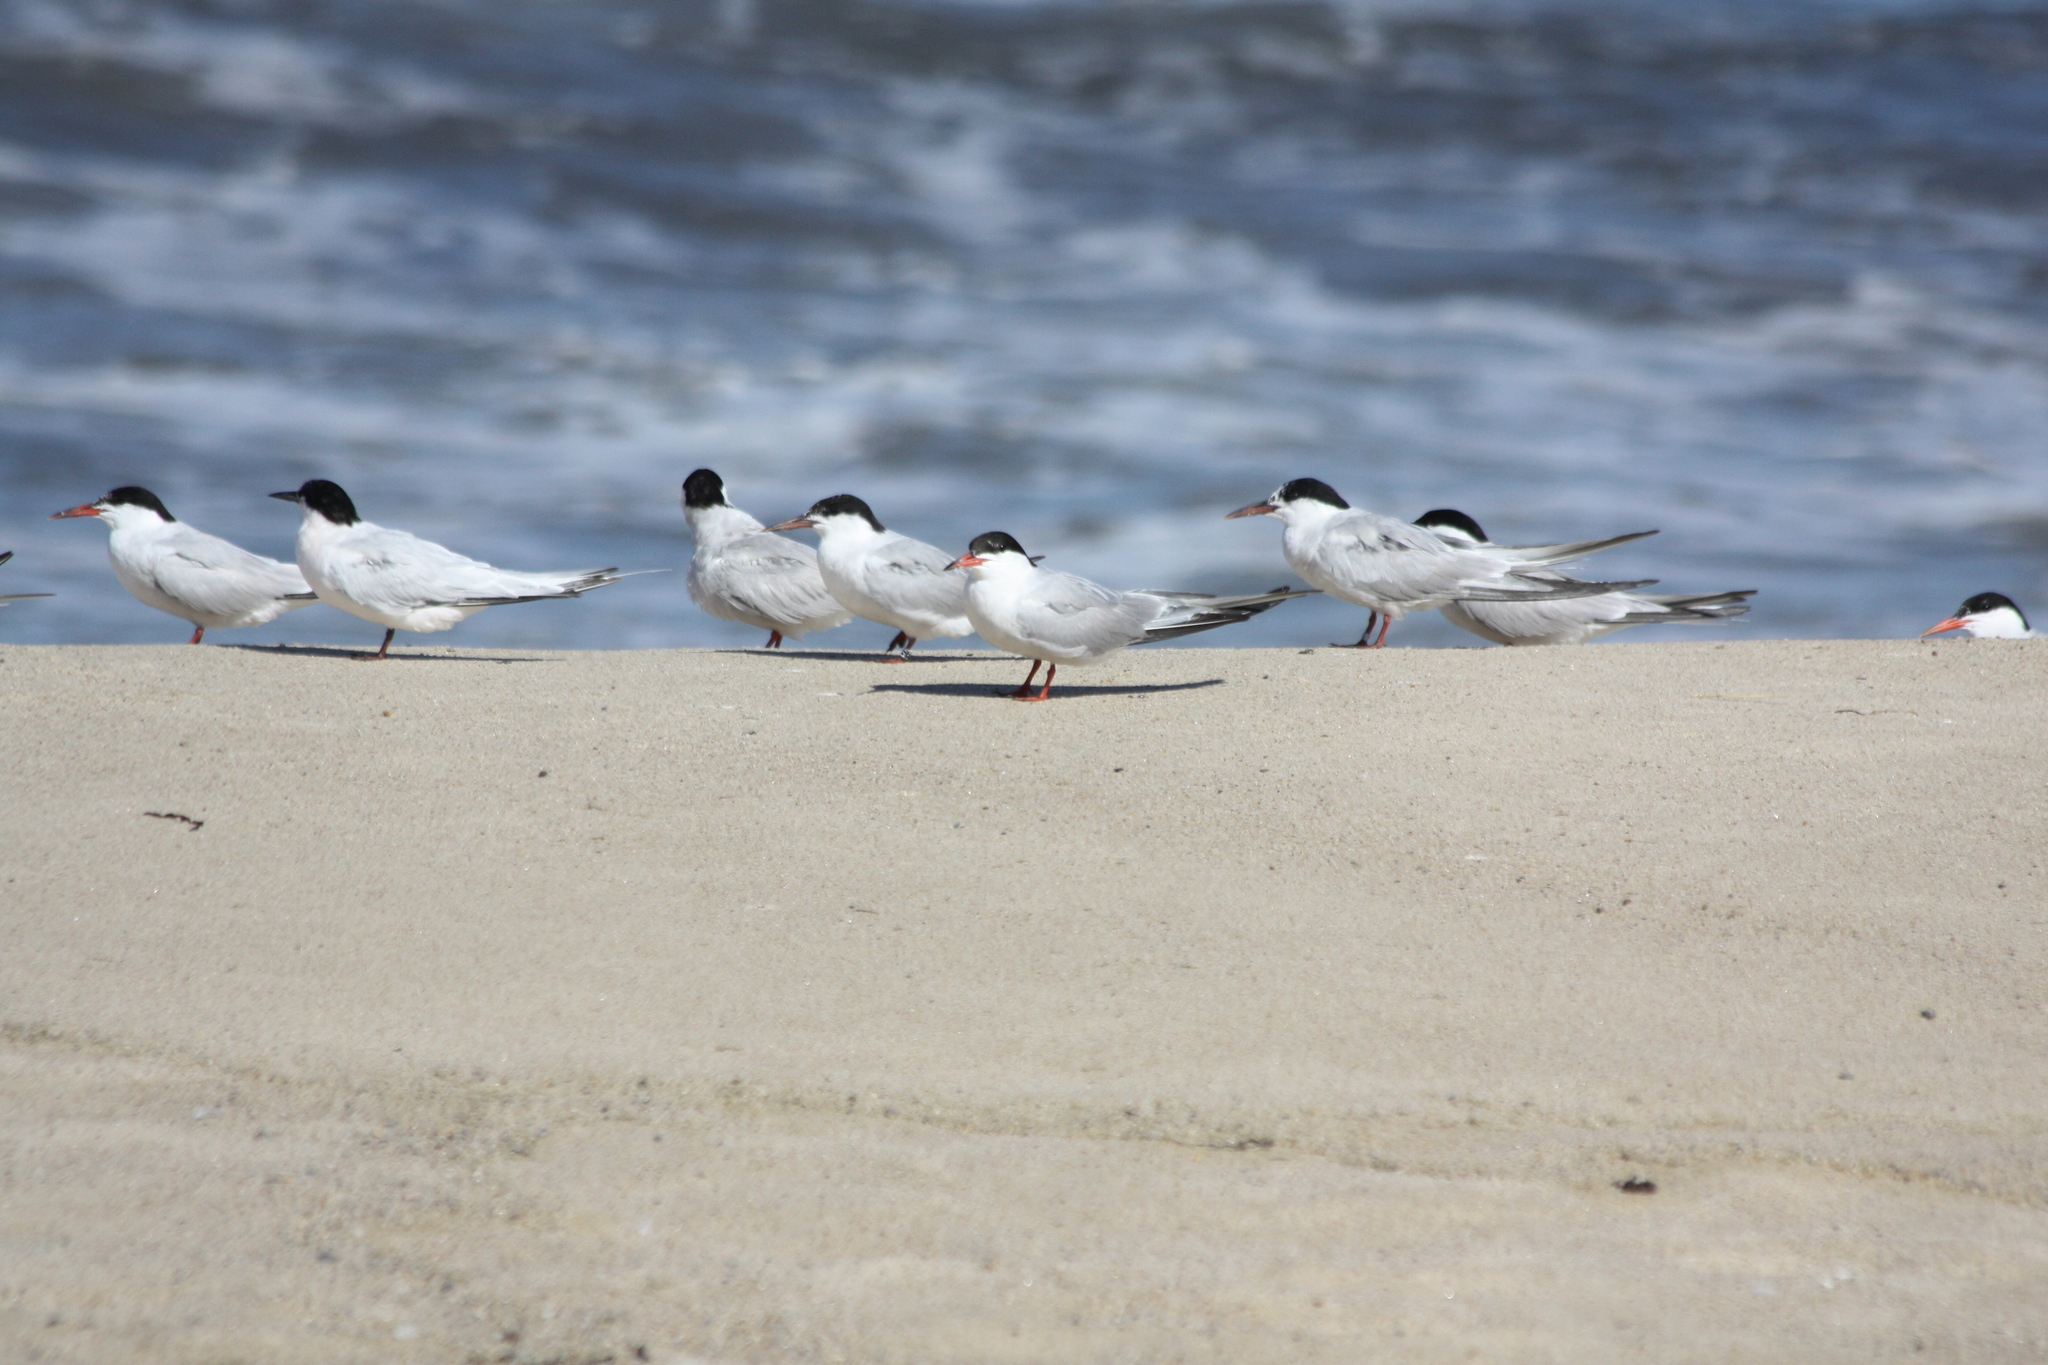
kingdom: Animalia
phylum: Chordata
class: Aves
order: Charadriiformes
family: Laridae
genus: Sterna
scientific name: Sterna hirundo
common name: Common tern
